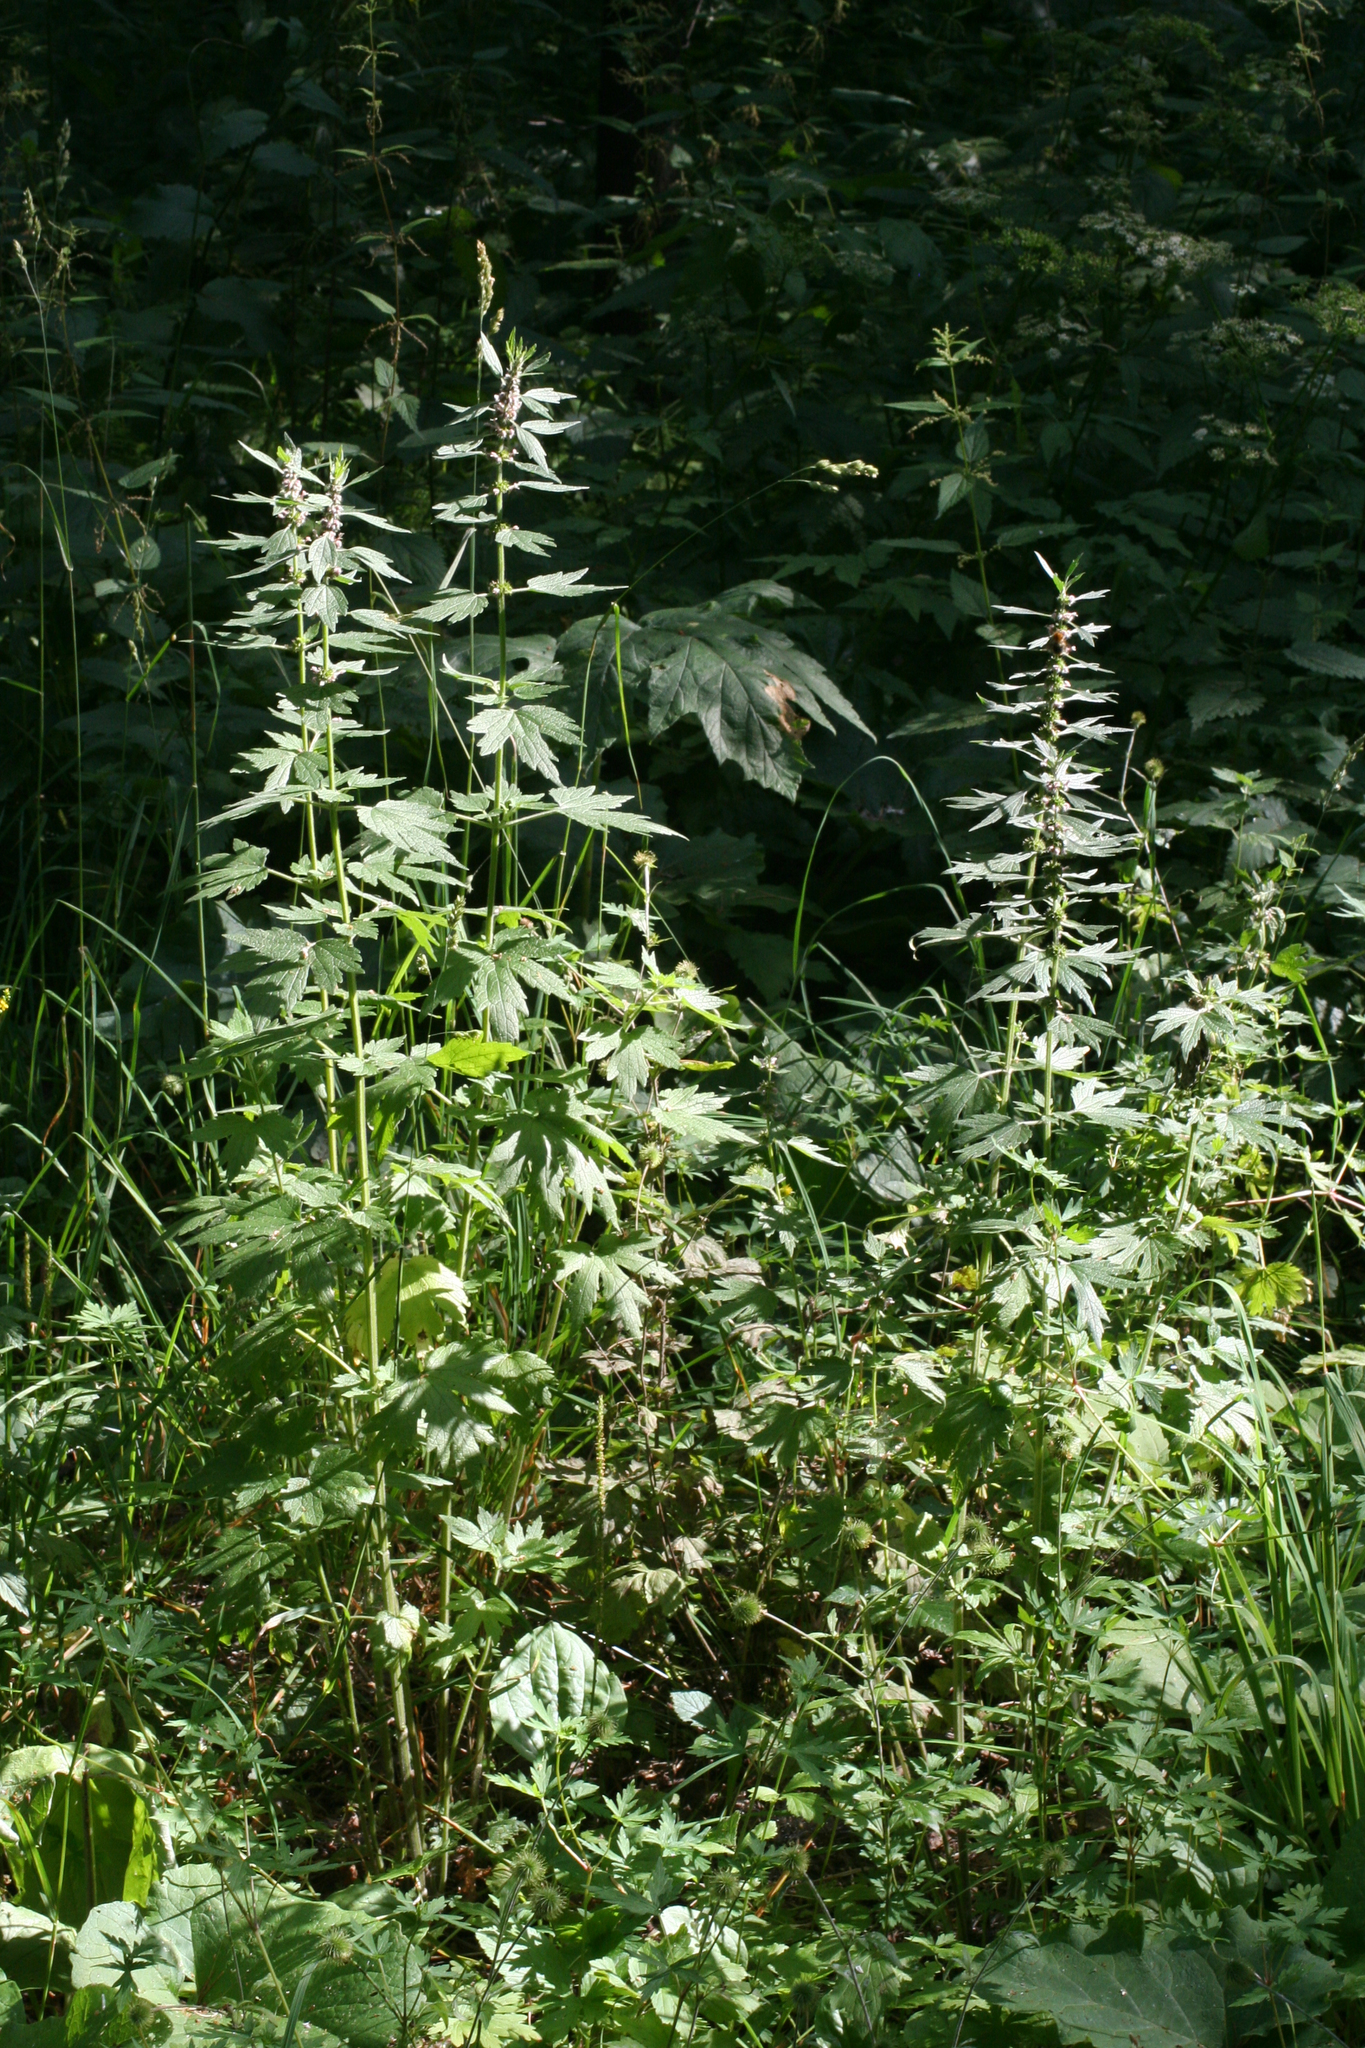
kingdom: Plantae
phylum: Tracheophyta
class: Magnoliopsida
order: Lamiales
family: Lamiaceae
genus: Leonurus
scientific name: Leonurus quinquelobatus
